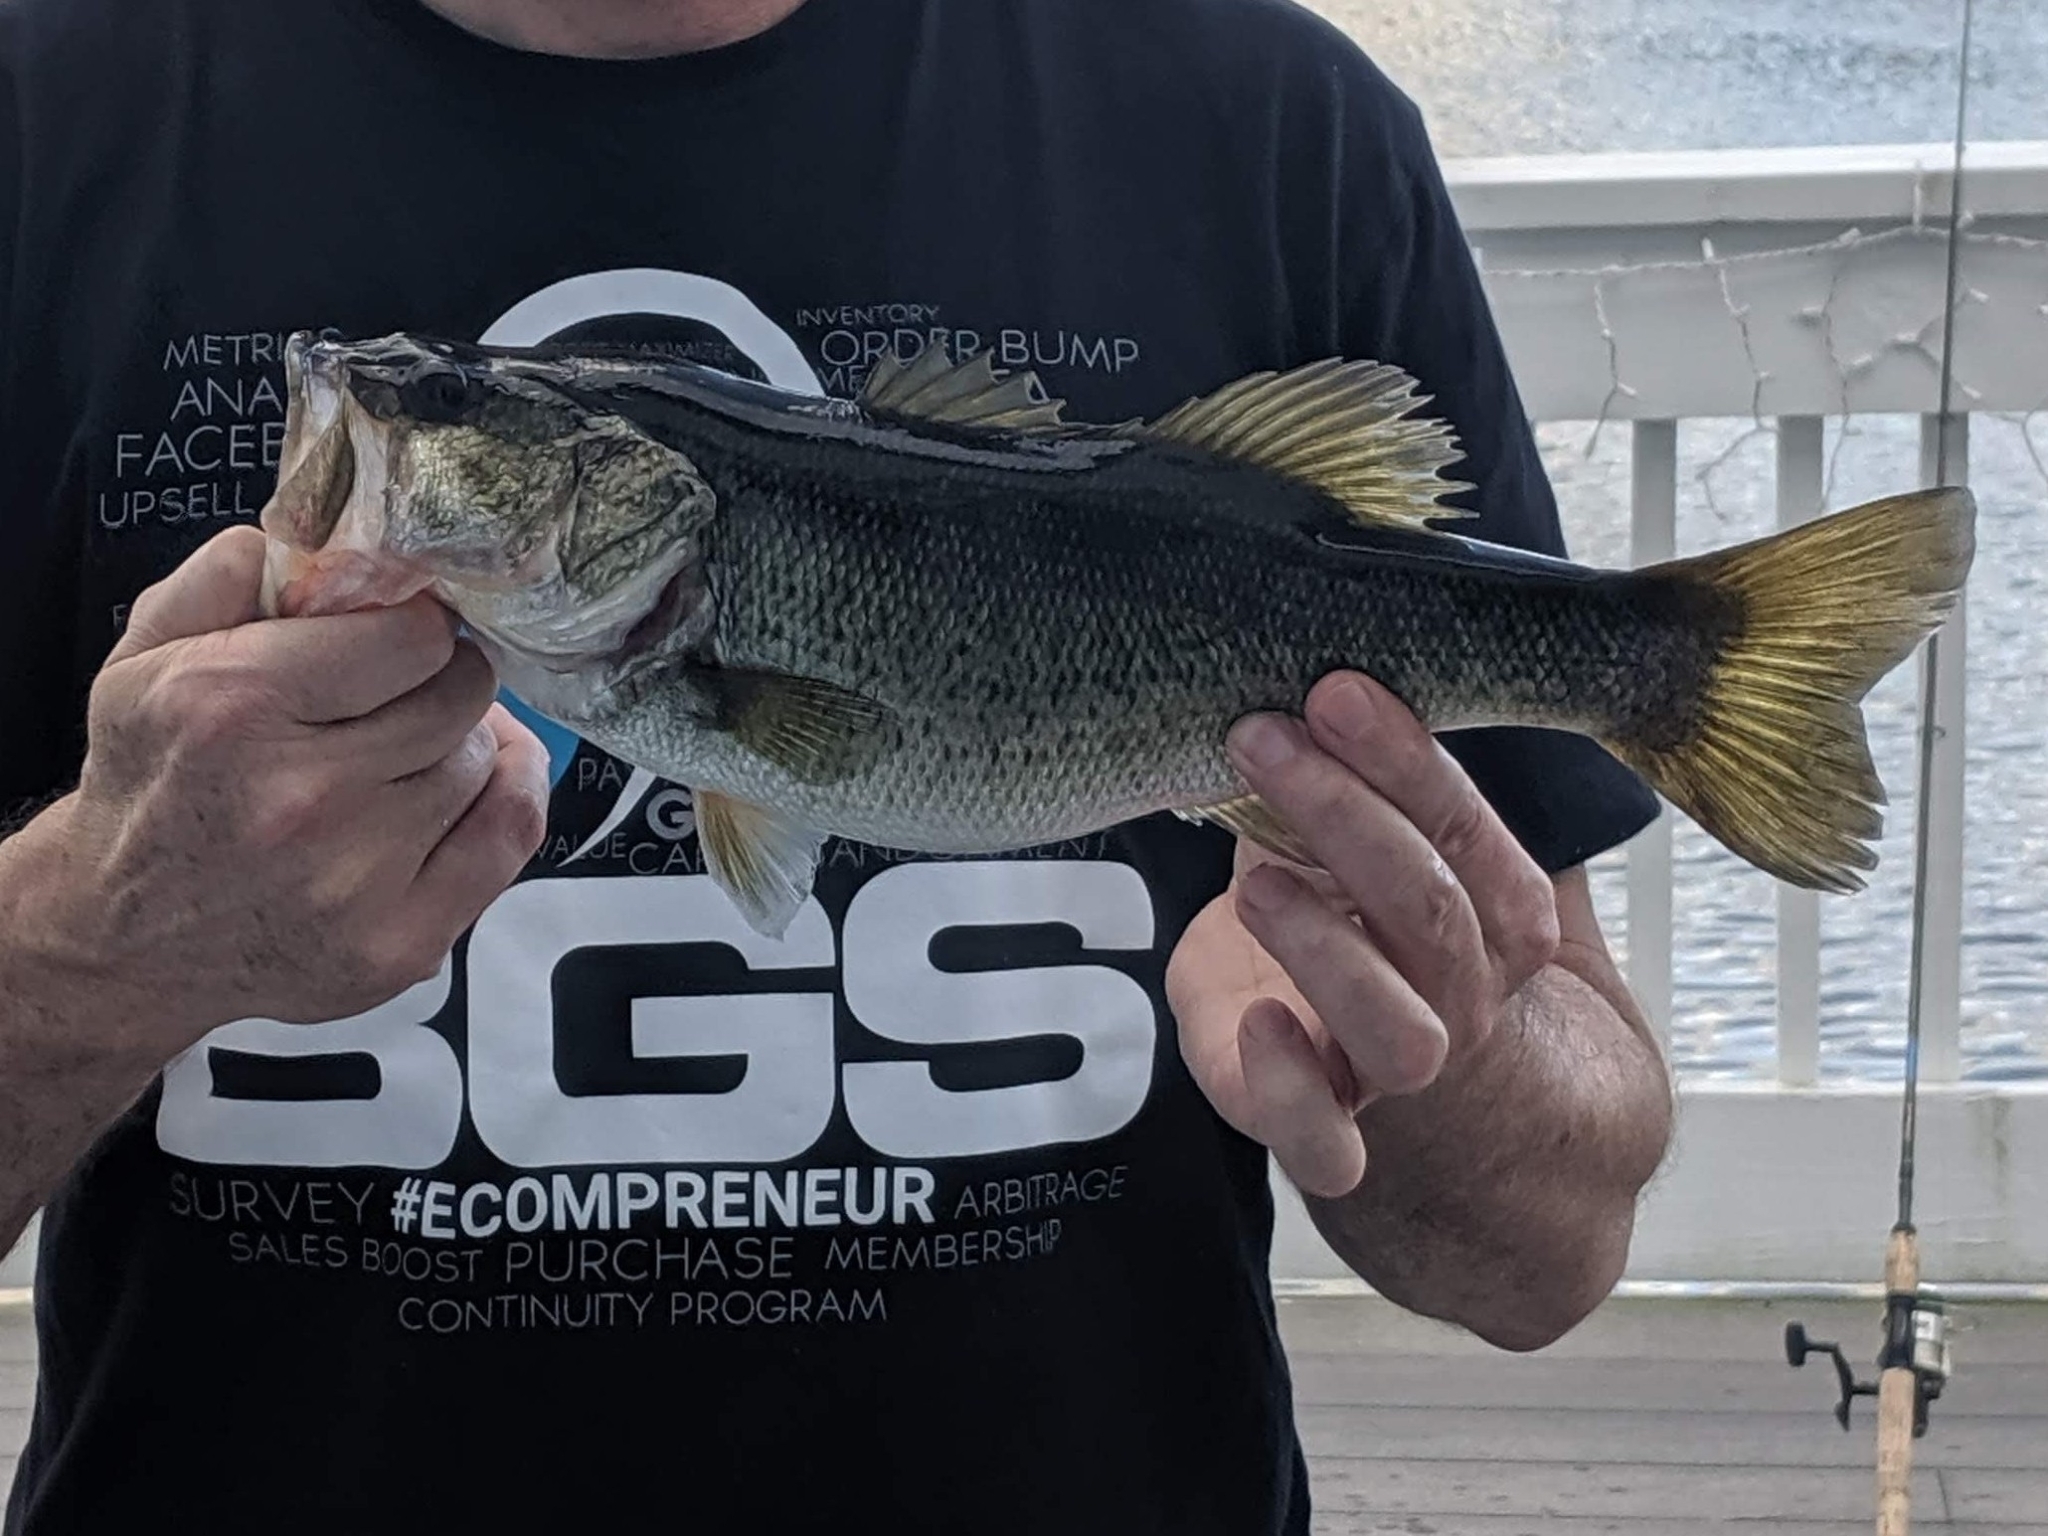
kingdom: Animalia
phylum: Chordata
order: Perciformes
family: Centrarchidae
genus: Micropterus
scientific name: Micropterus salmoides
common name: Largemouth bass
